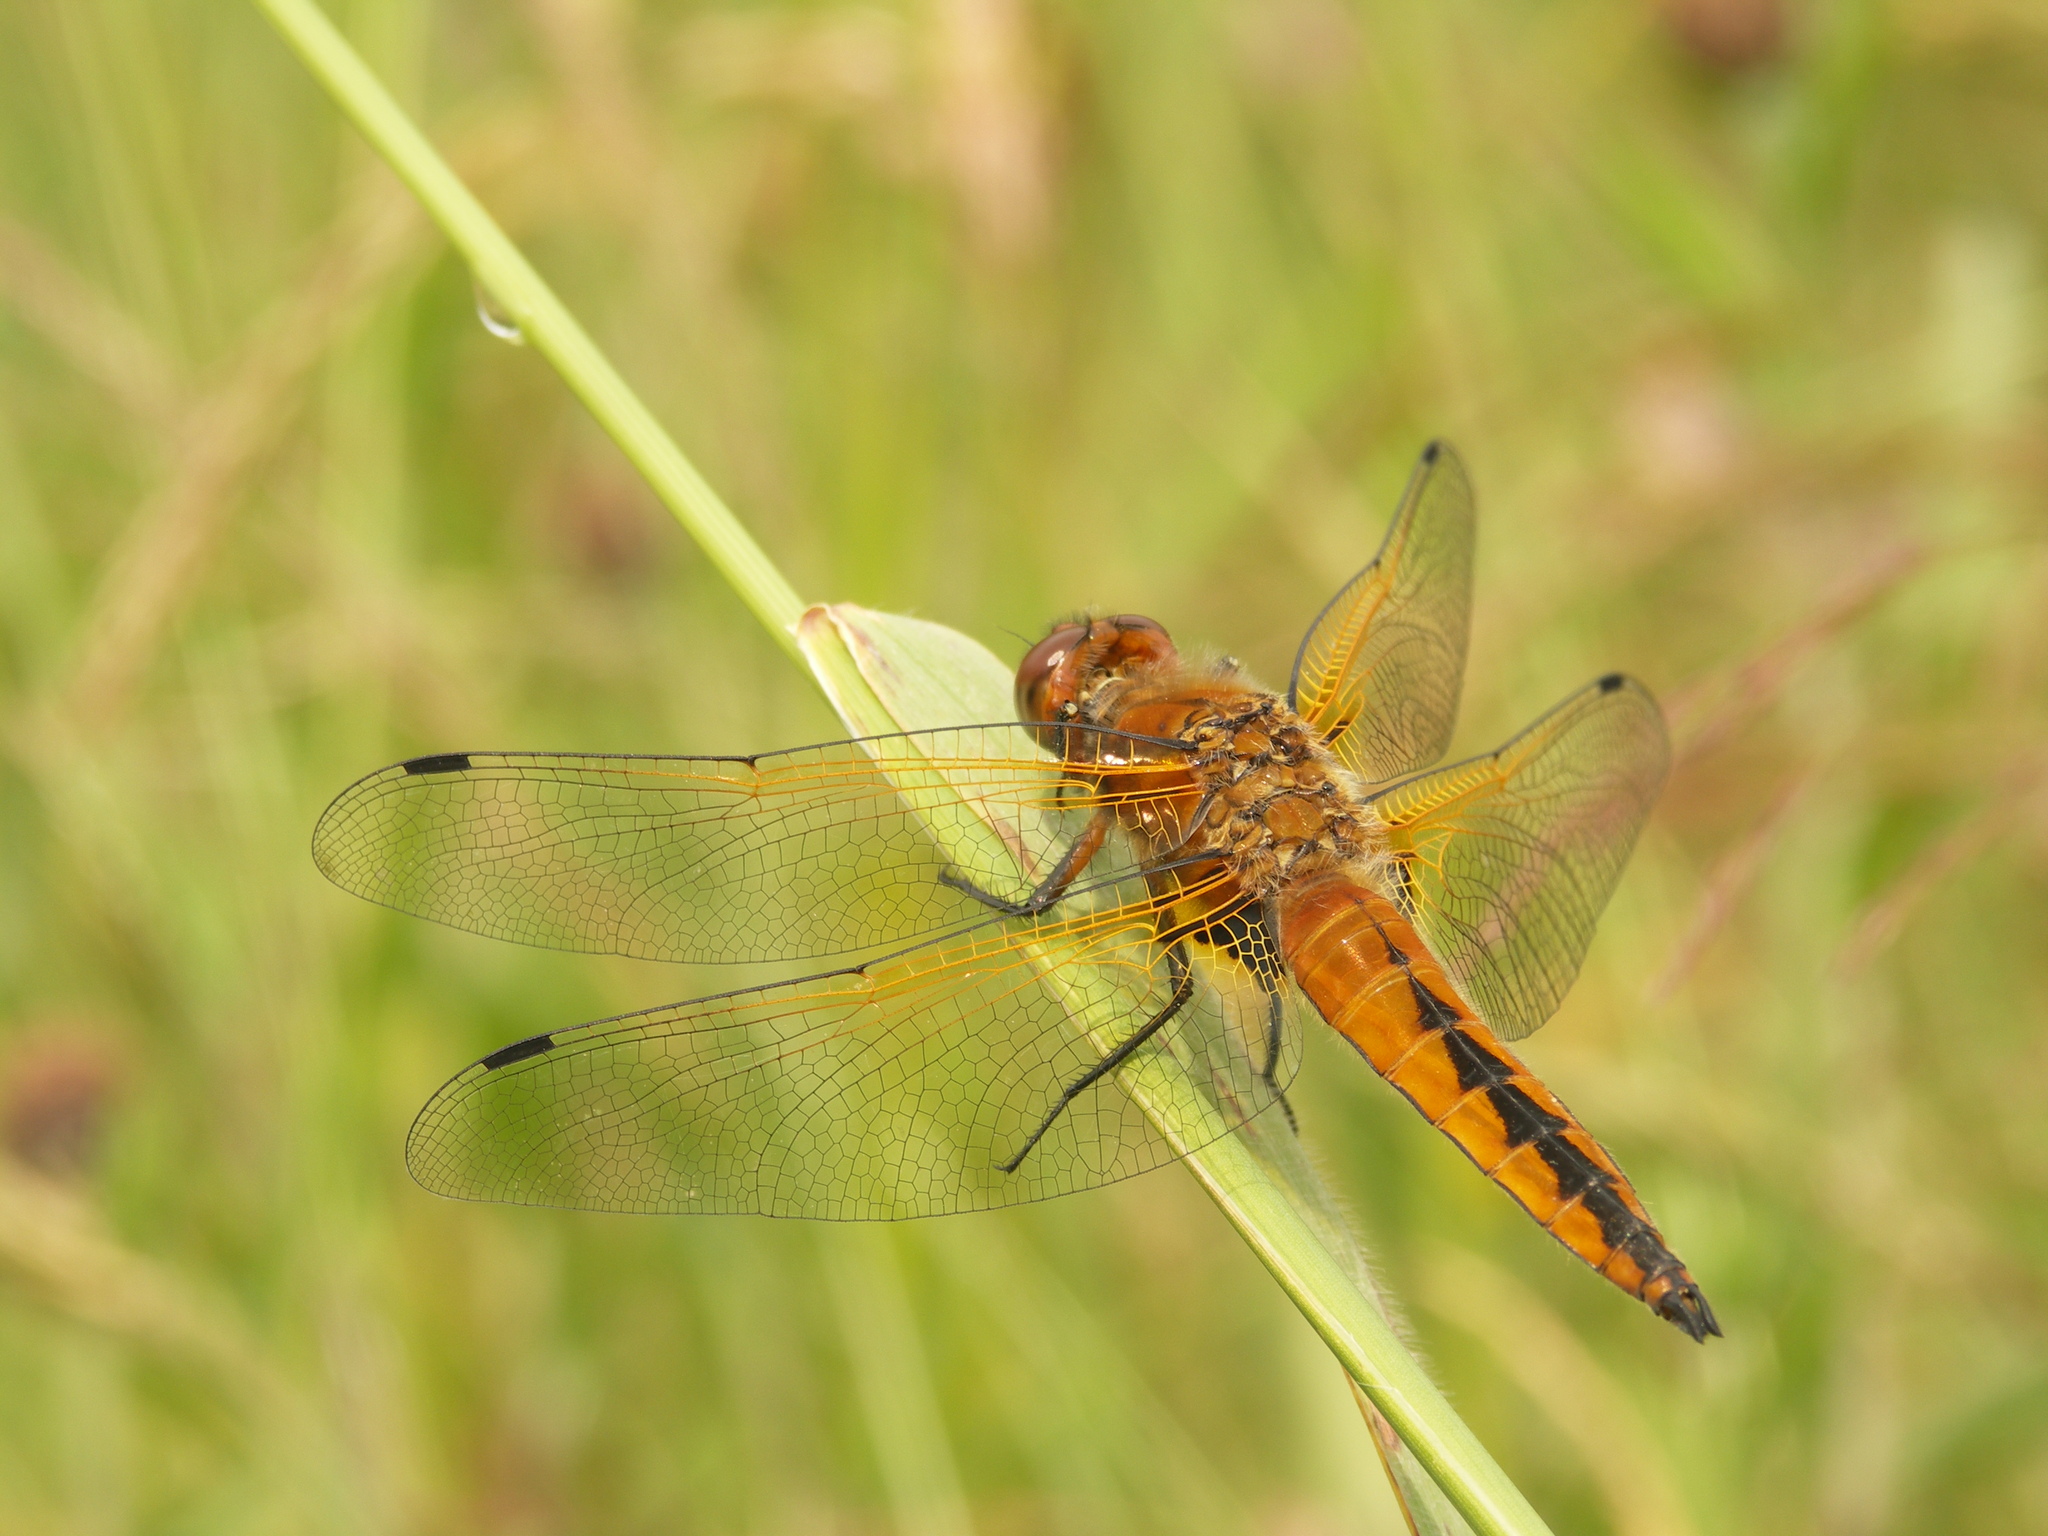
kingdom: Animalia
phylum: Arthropoda
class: Insecta
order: Odonata
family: Libellulidae
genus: Libellula
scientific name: Libellula fulva
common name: Blue chaser
